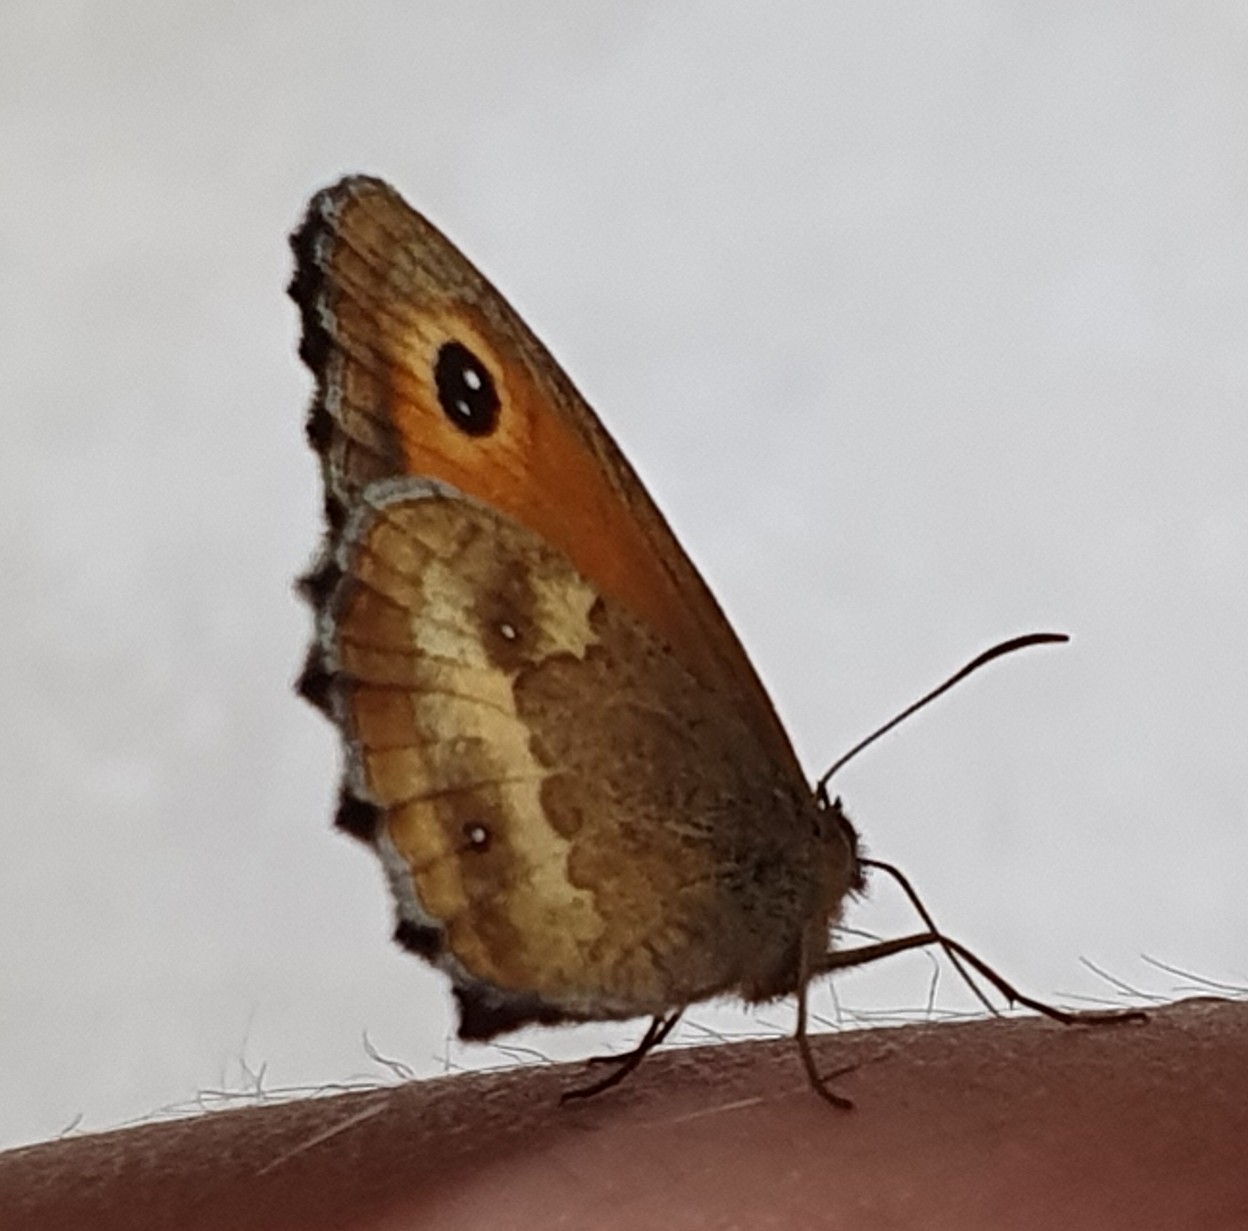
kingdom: Animalia
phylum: Arthropoda
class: Insecta
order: Lepidoptera
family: Nymphalidae
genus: Pyronia
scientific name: Pyronia tithonus
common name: Gatekeeper
